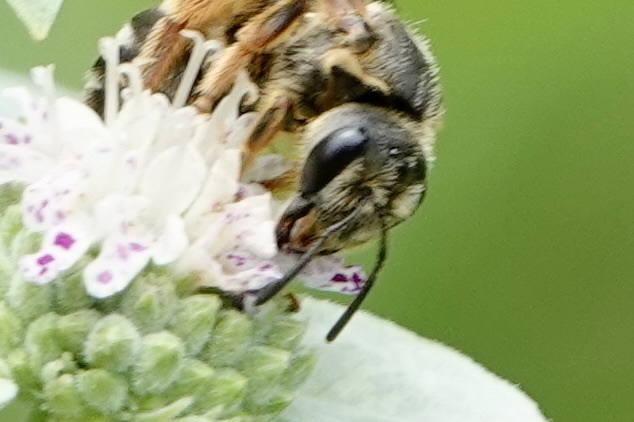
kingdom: Animalia
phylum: Arthropoda
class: Insecta
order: Hymenoptera
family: Halictidae
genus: Halictus
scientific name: Halictus parallelus
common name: Parallel-striped sweat bee
